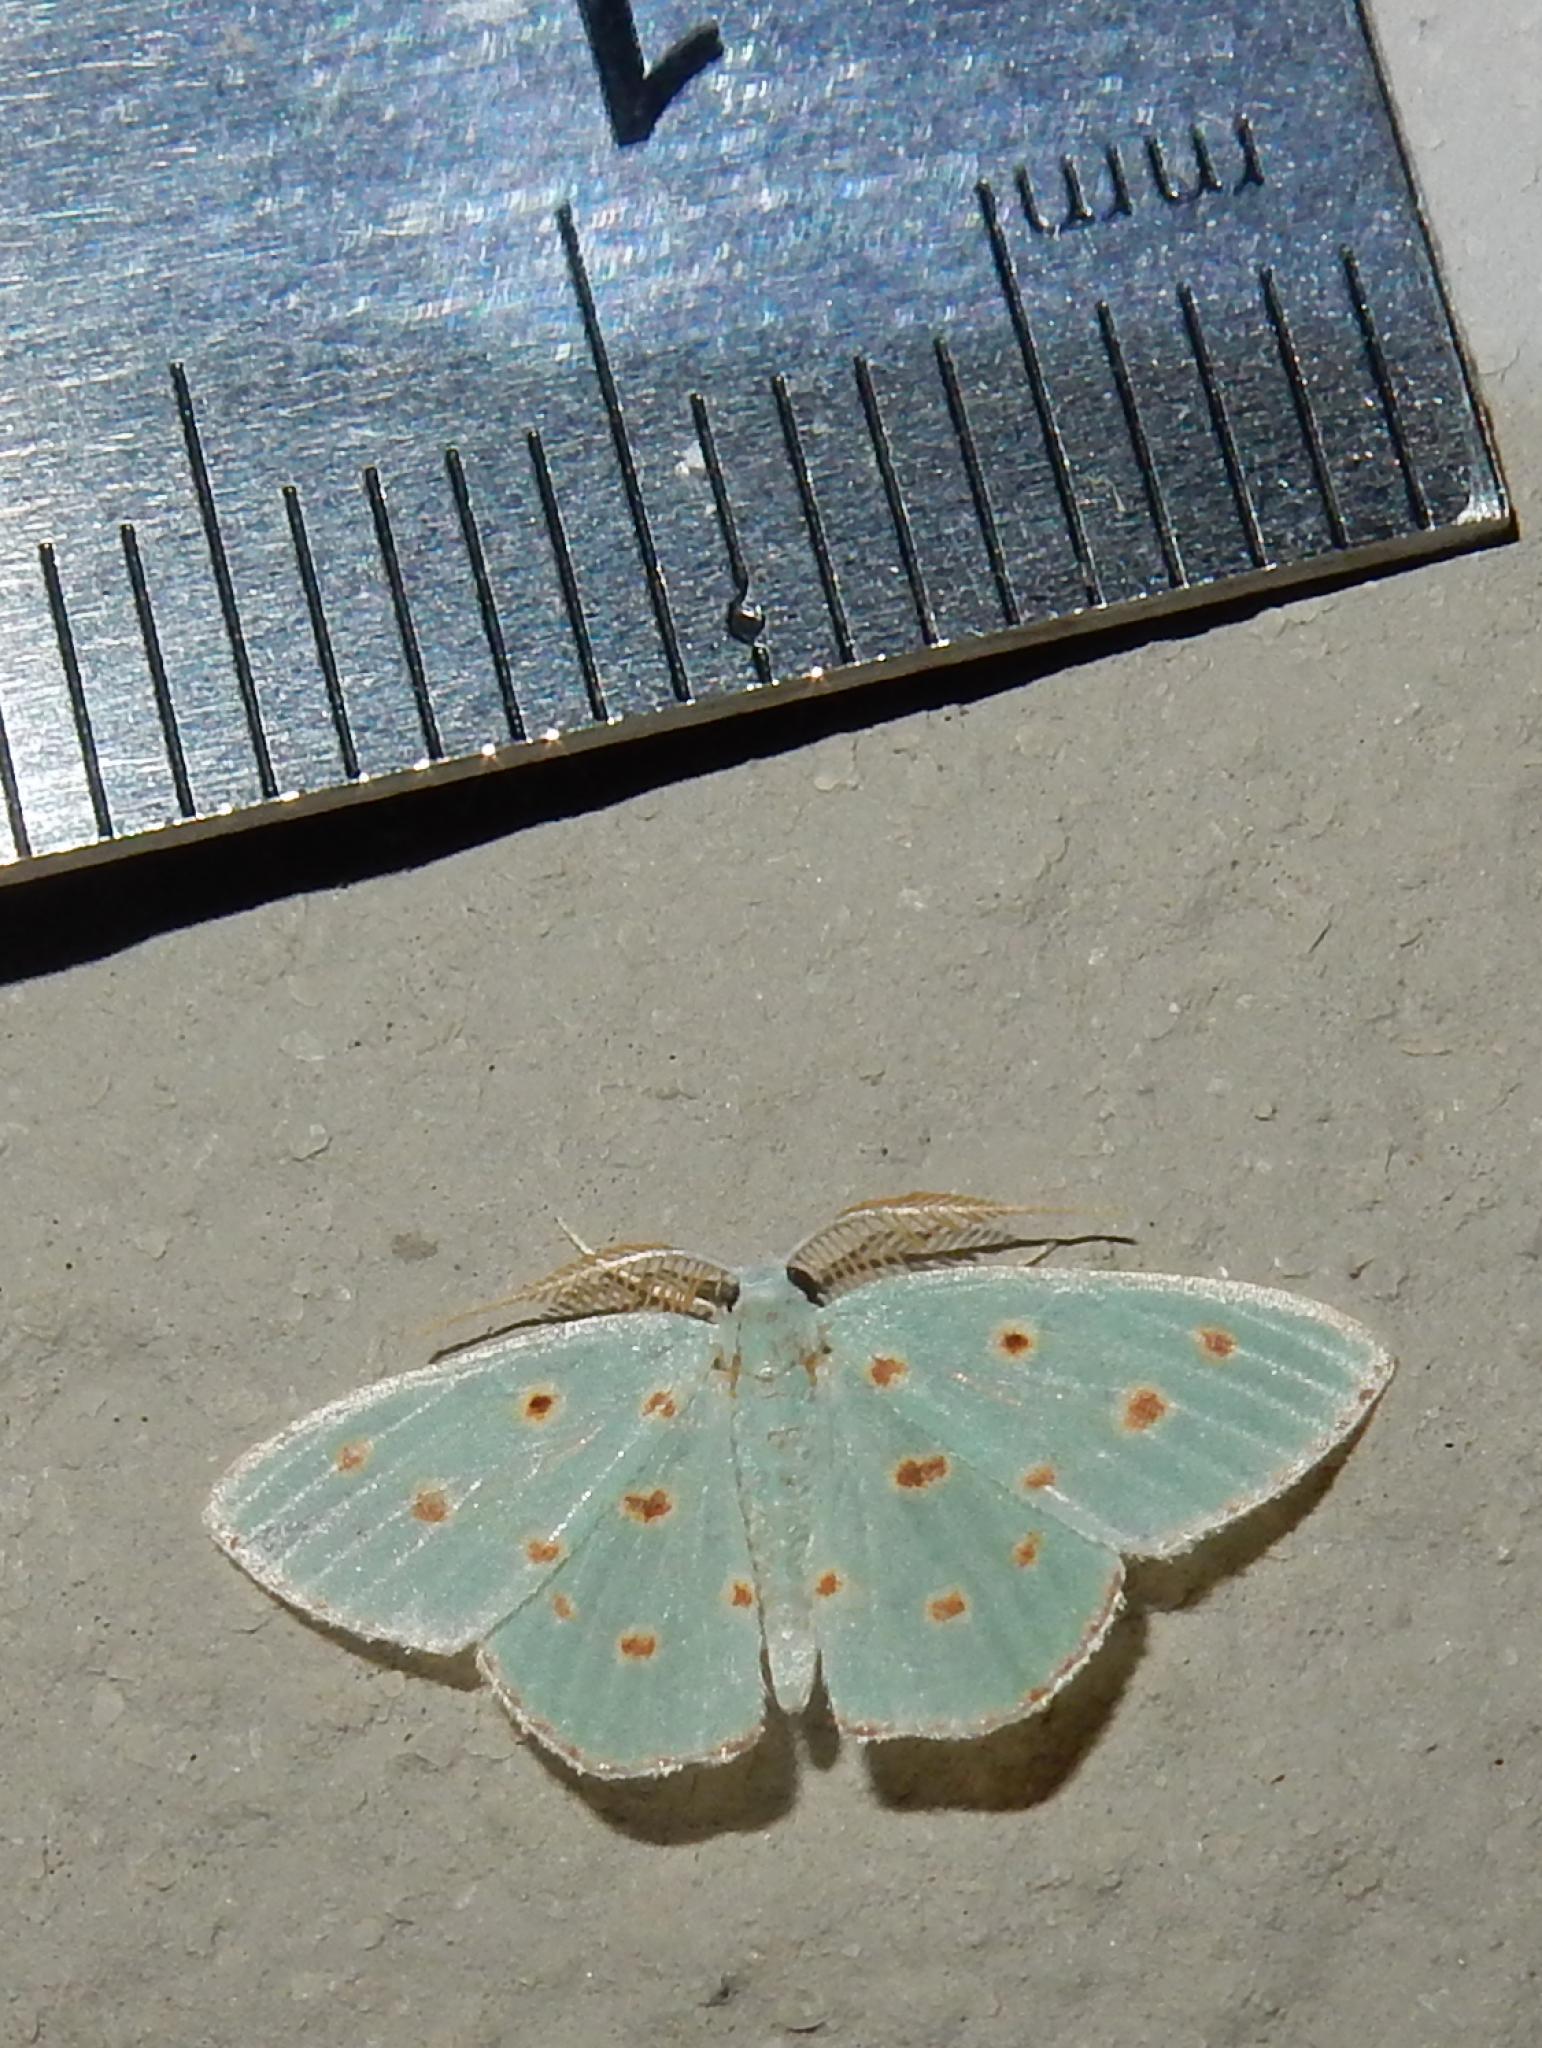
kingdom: Animalia
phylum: Arthropoda
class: Insecta
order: Lepidoptera
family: Geometridae
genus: Comostolopsis
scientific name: Comostolopsis stillata
